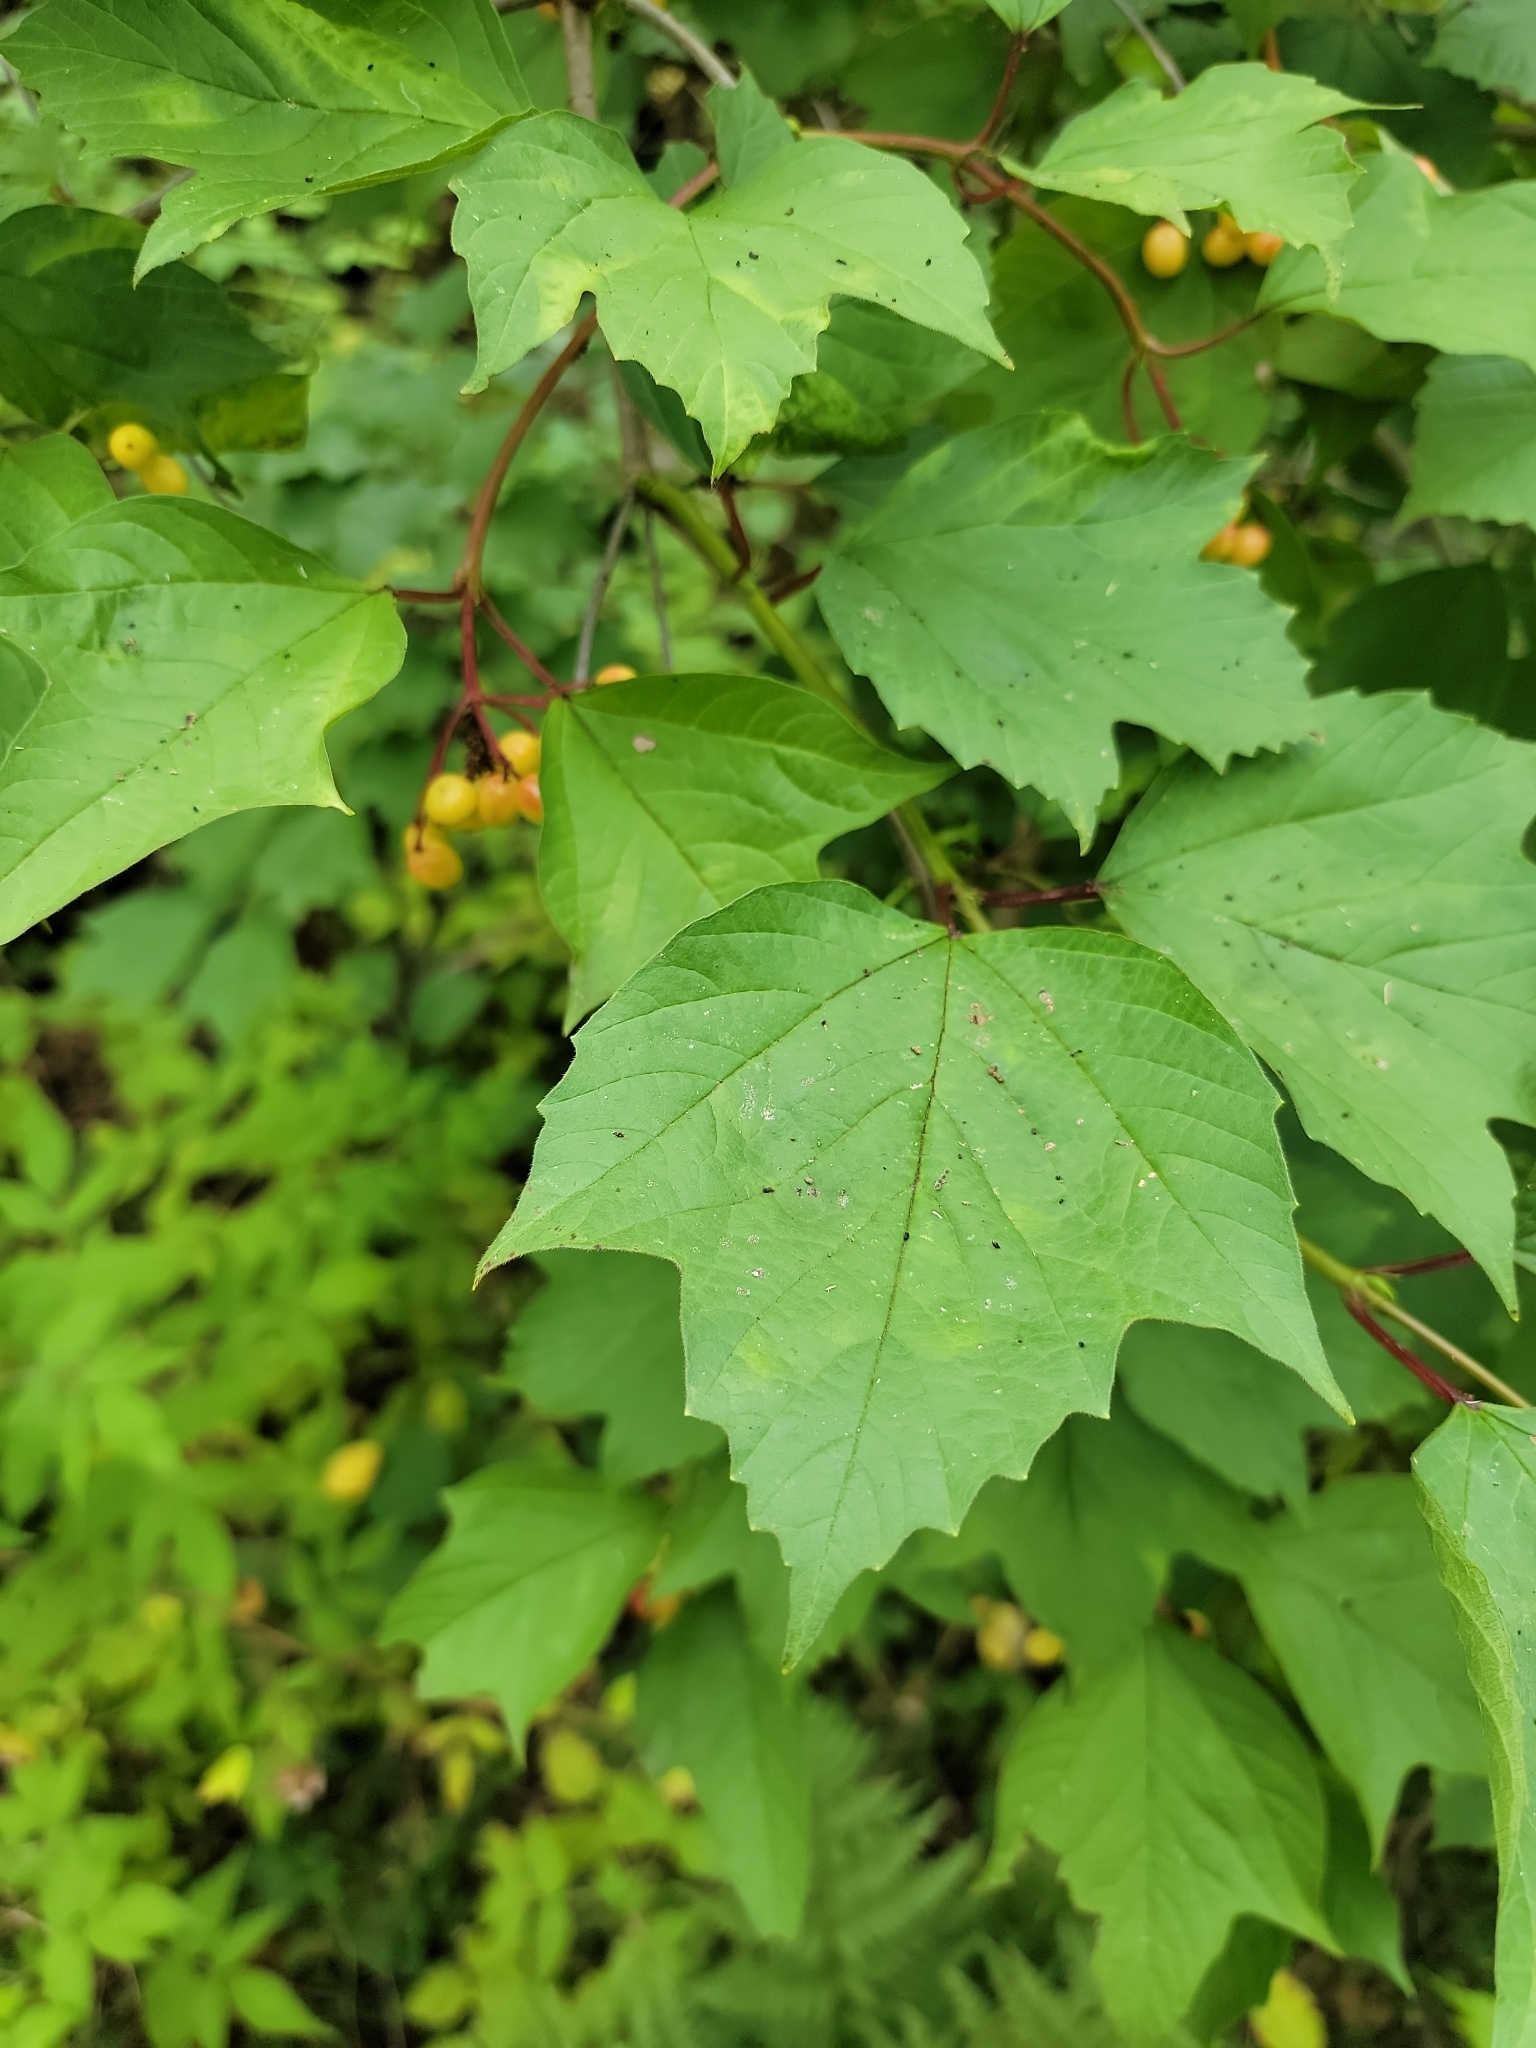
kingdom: Plantae
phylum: Tracheophyta
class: Magnoliopsida
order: Dipsacales
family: Viburnaceae
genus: Viburnum
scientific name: Viburnum opulus
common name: Guelder-rose
